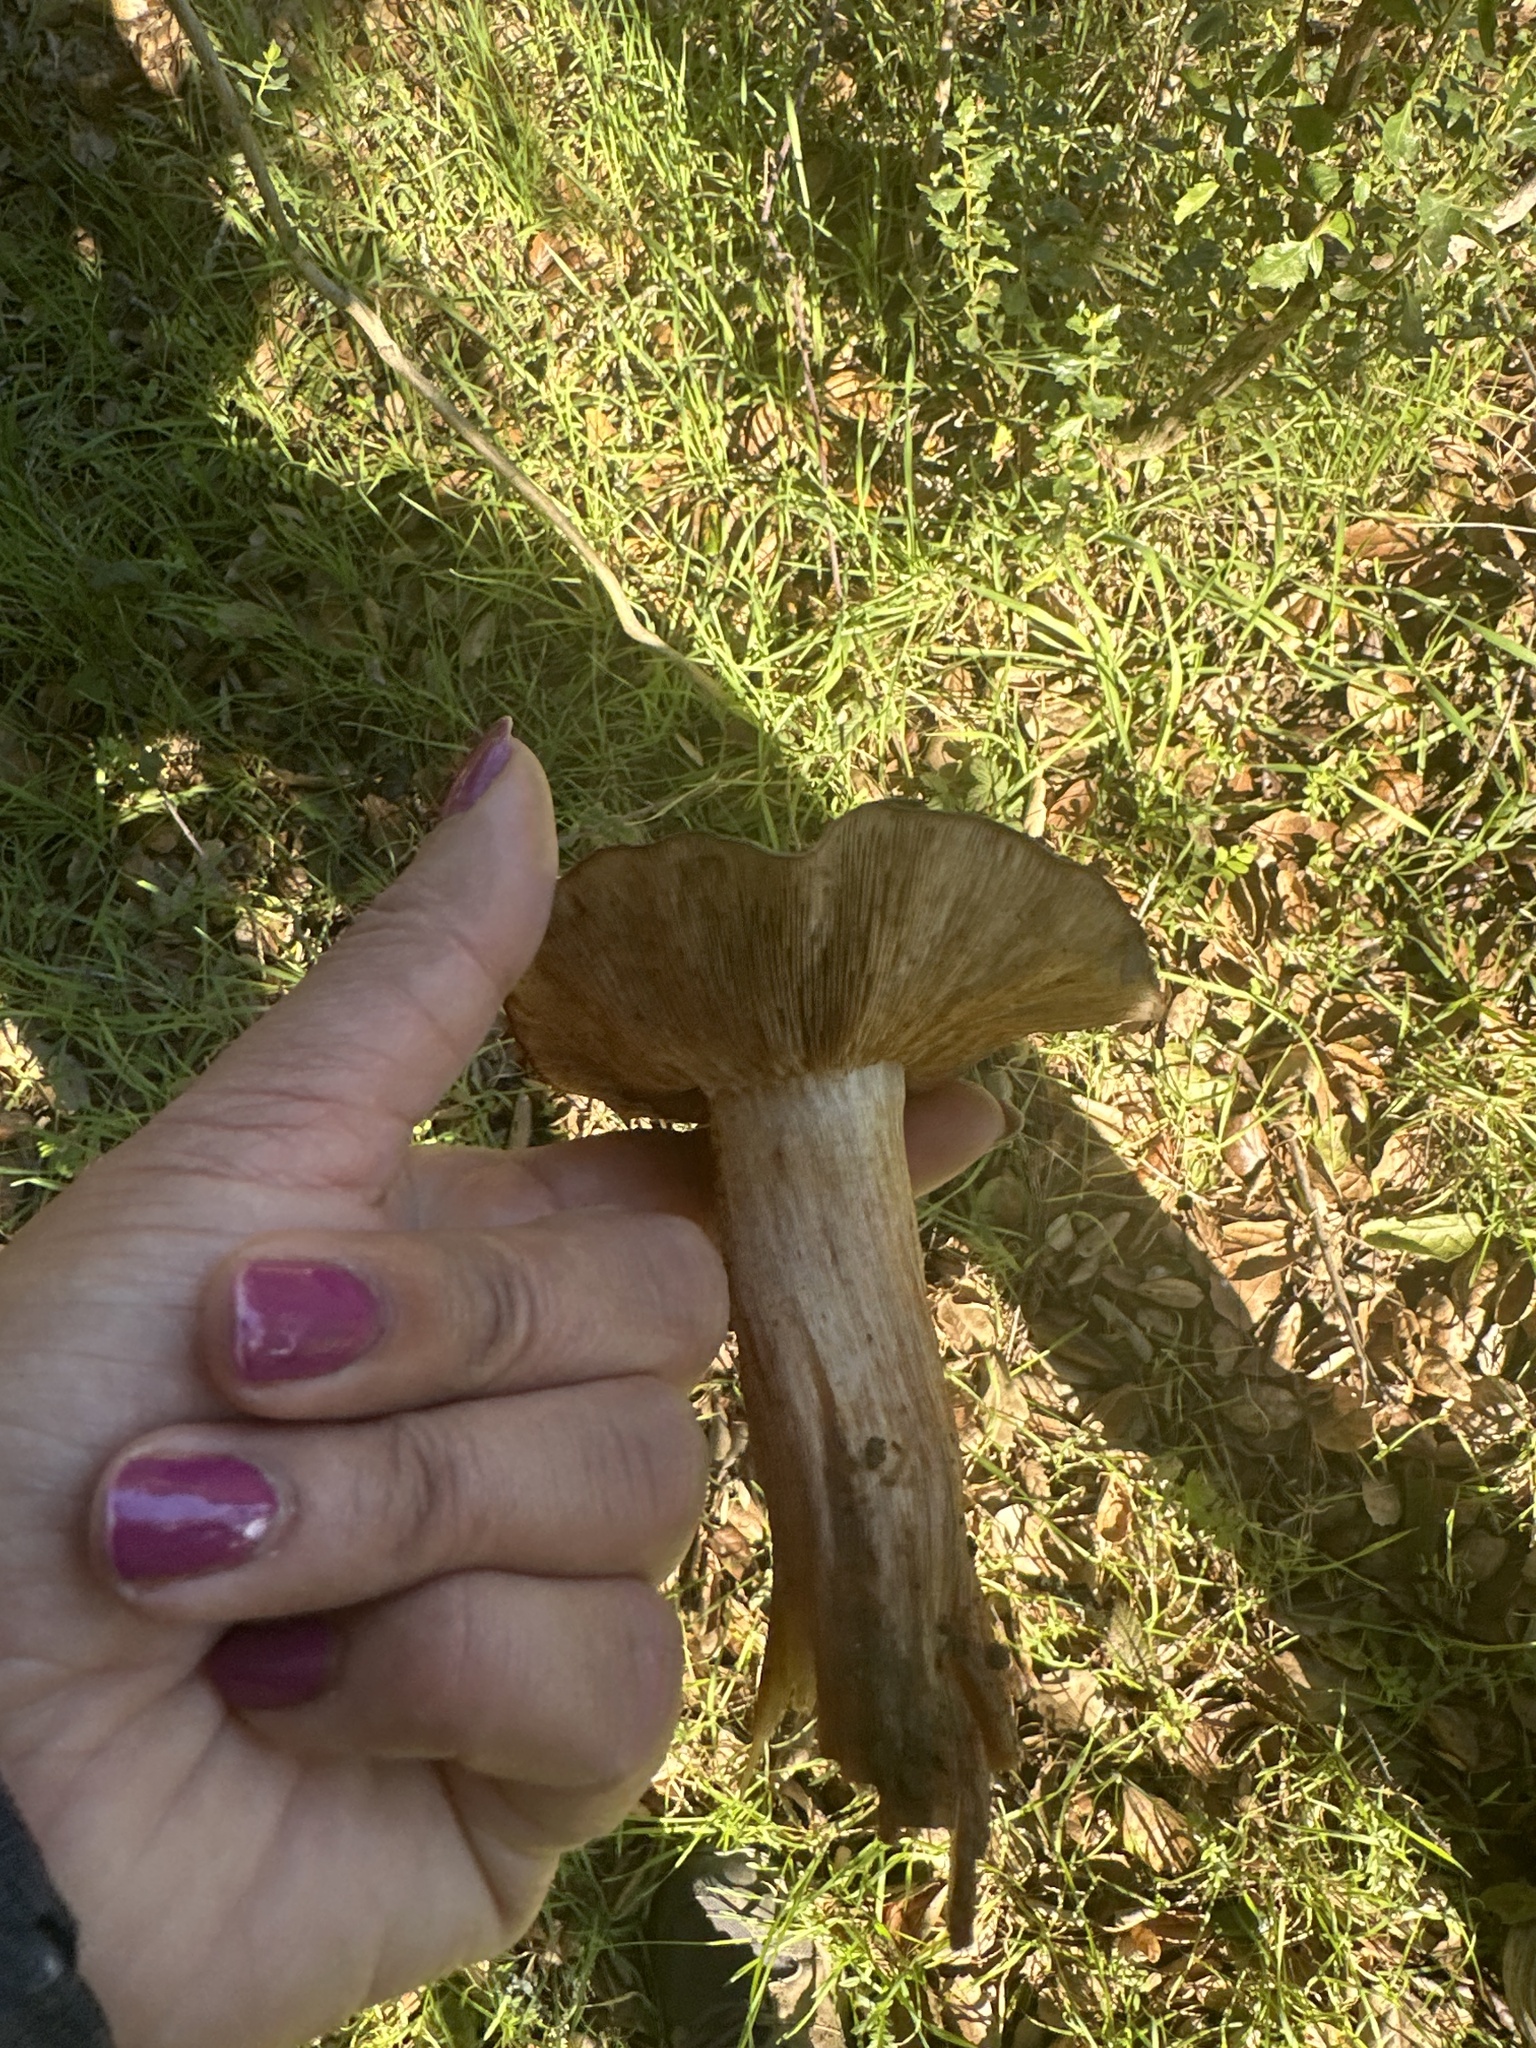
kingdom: Fungi
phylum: Basidiomycota
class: Agaricomycetes
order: Agaricales
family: Tricholomataceae
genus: Melanoleuca
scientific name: Melanoleuca dryophila
